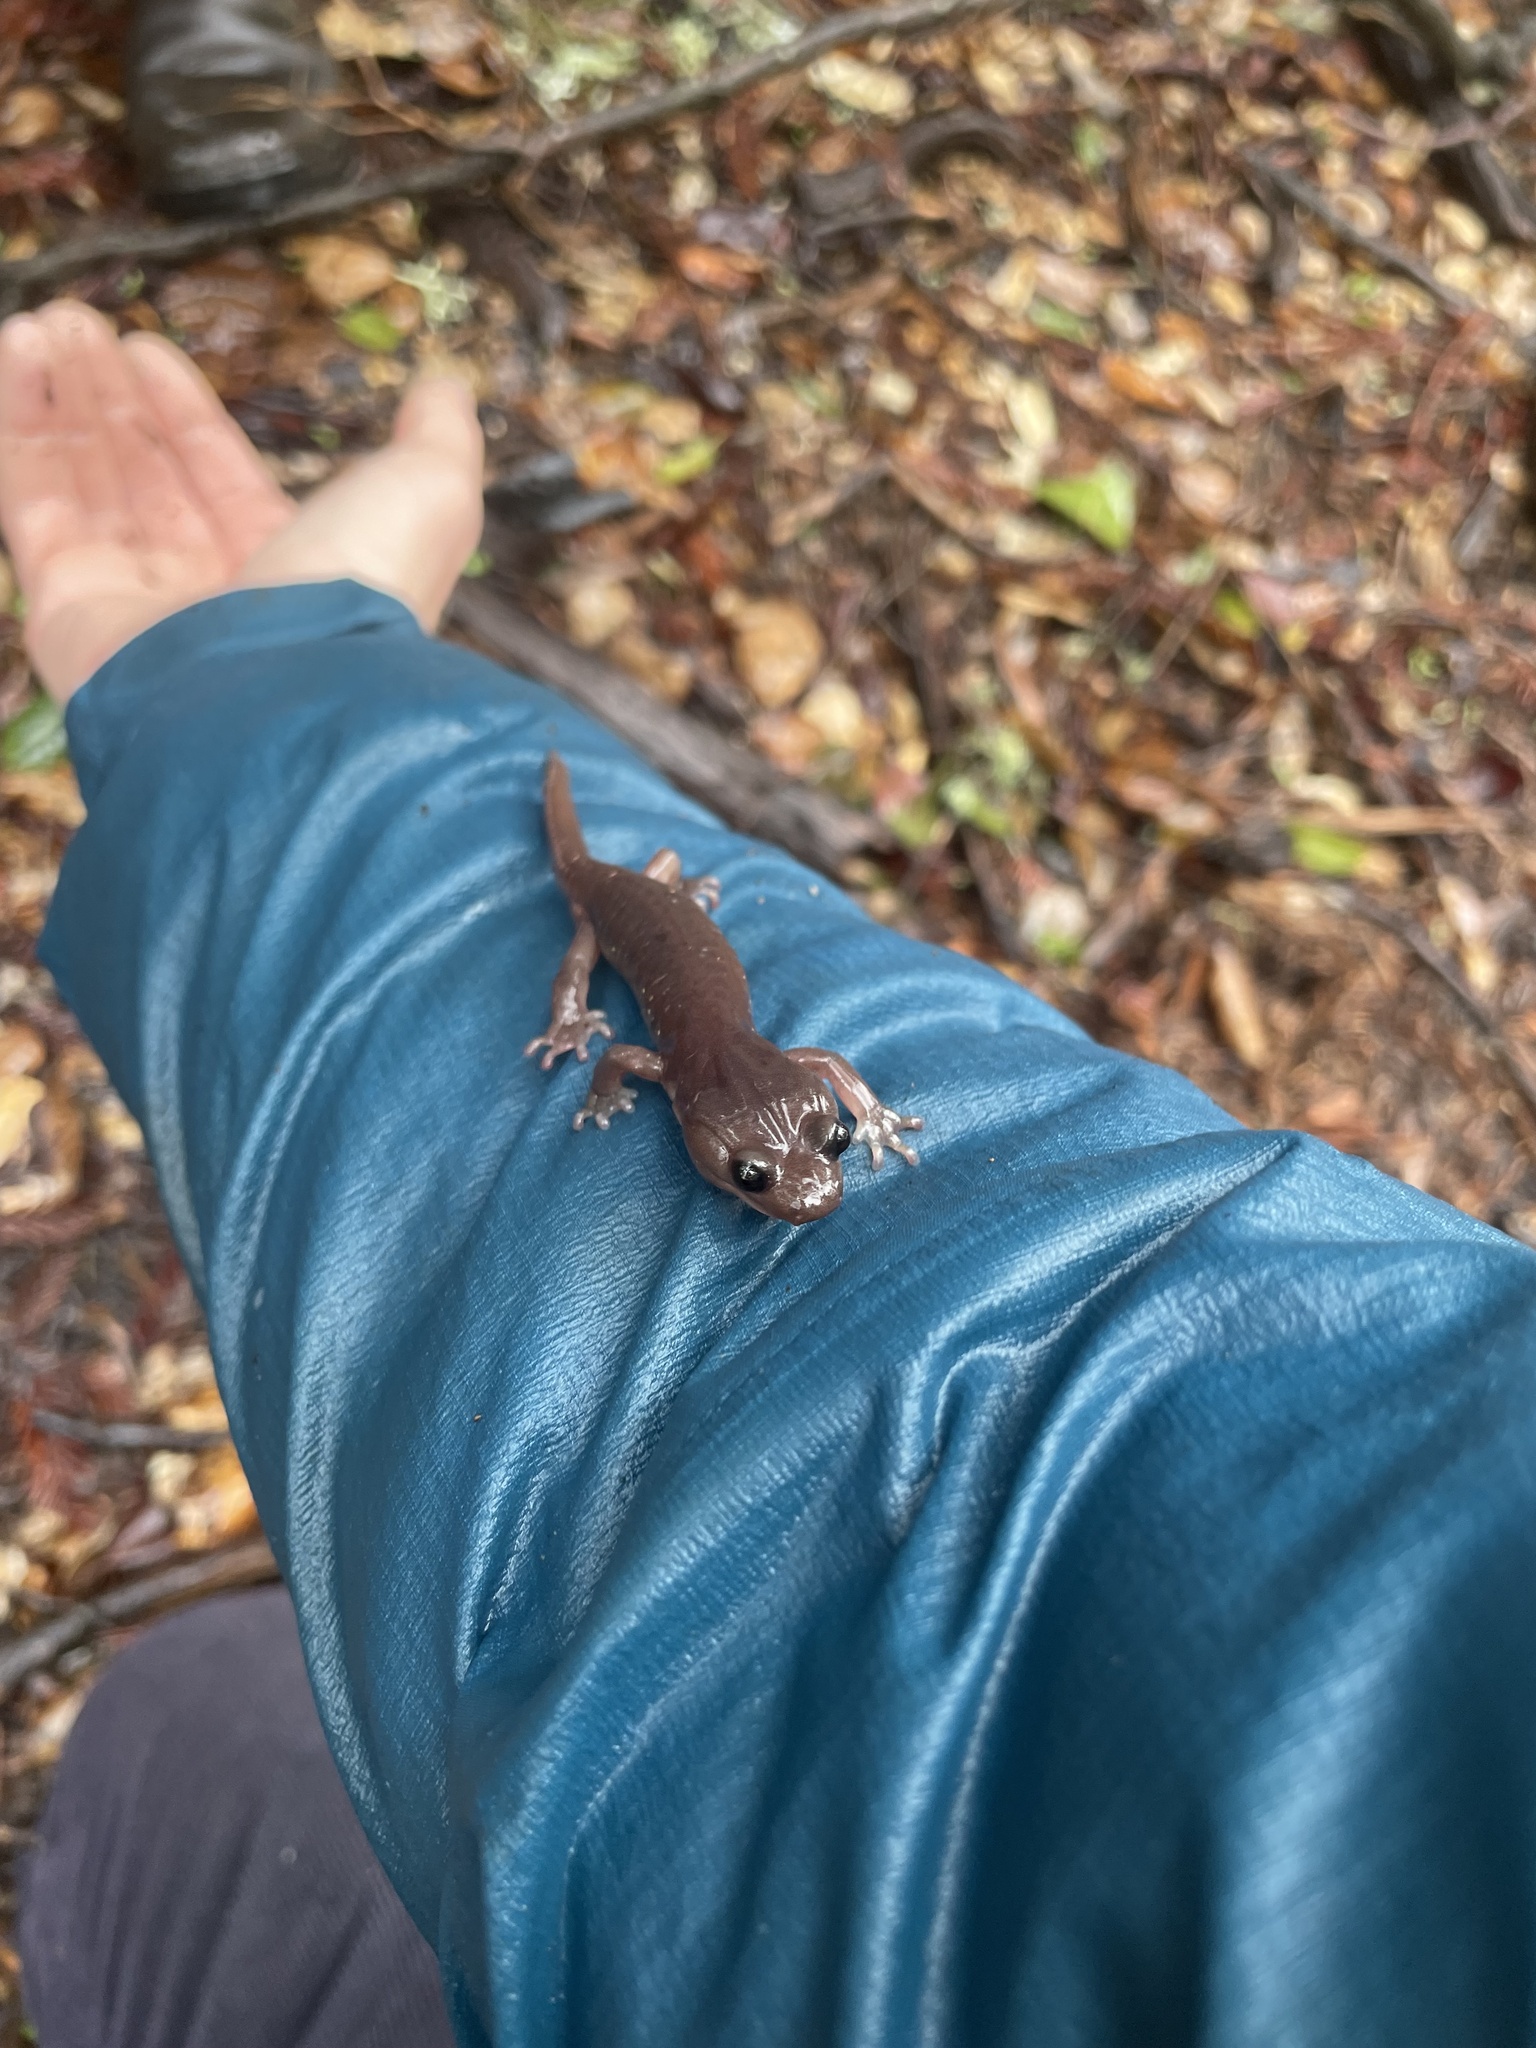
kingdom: Animalia
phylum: Chordata
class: Amphibia
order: Caudata
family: Plethodontidae
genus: Aneides
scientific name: Aneides lugubris
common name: Arboreal salamander
